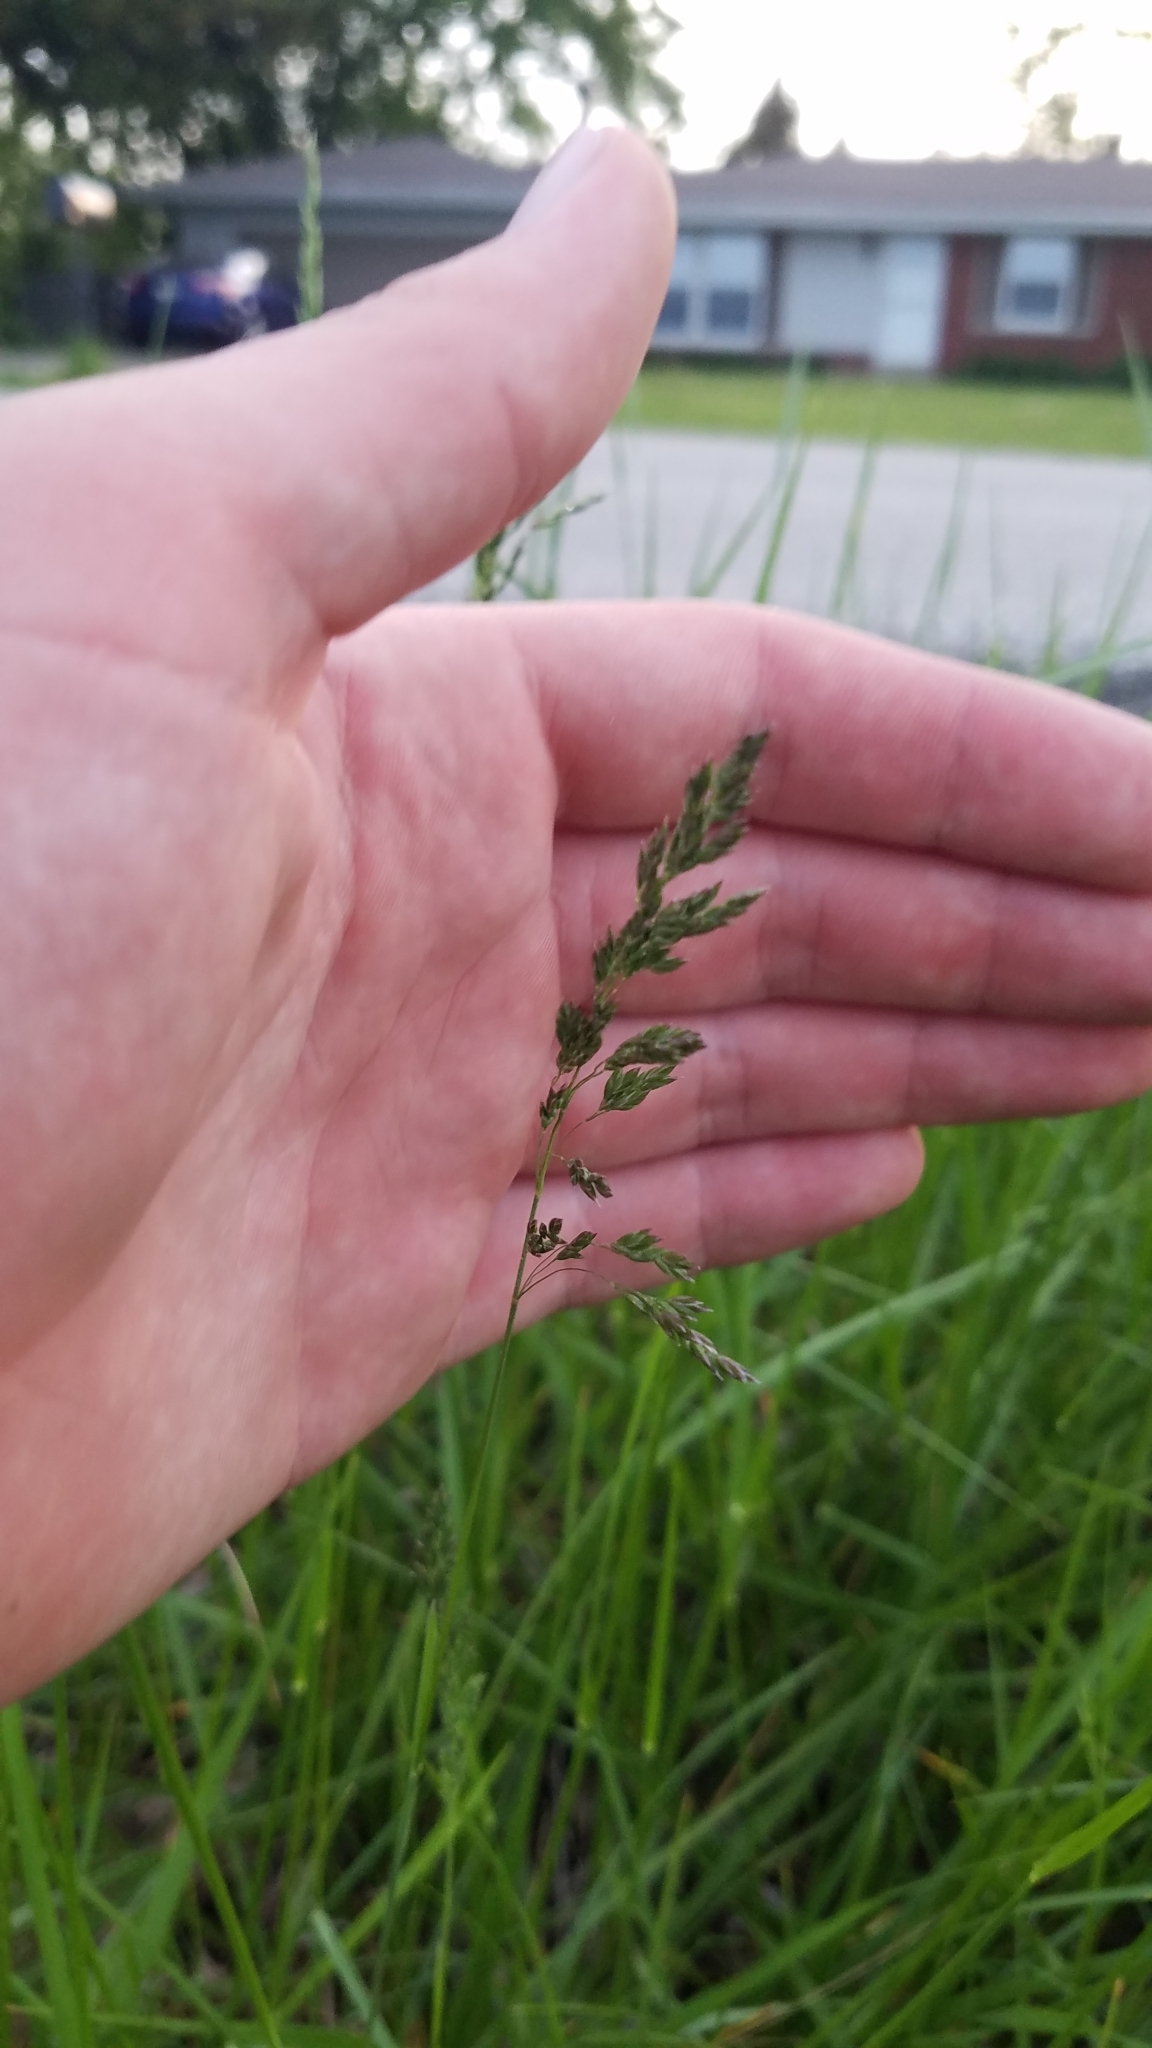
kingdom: Plantae
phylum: Tracheophyta
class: Liliopsida
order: Poales
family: Poaceae
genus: Poa
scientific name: Poa pratensis
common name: Kentucky bluegrass
